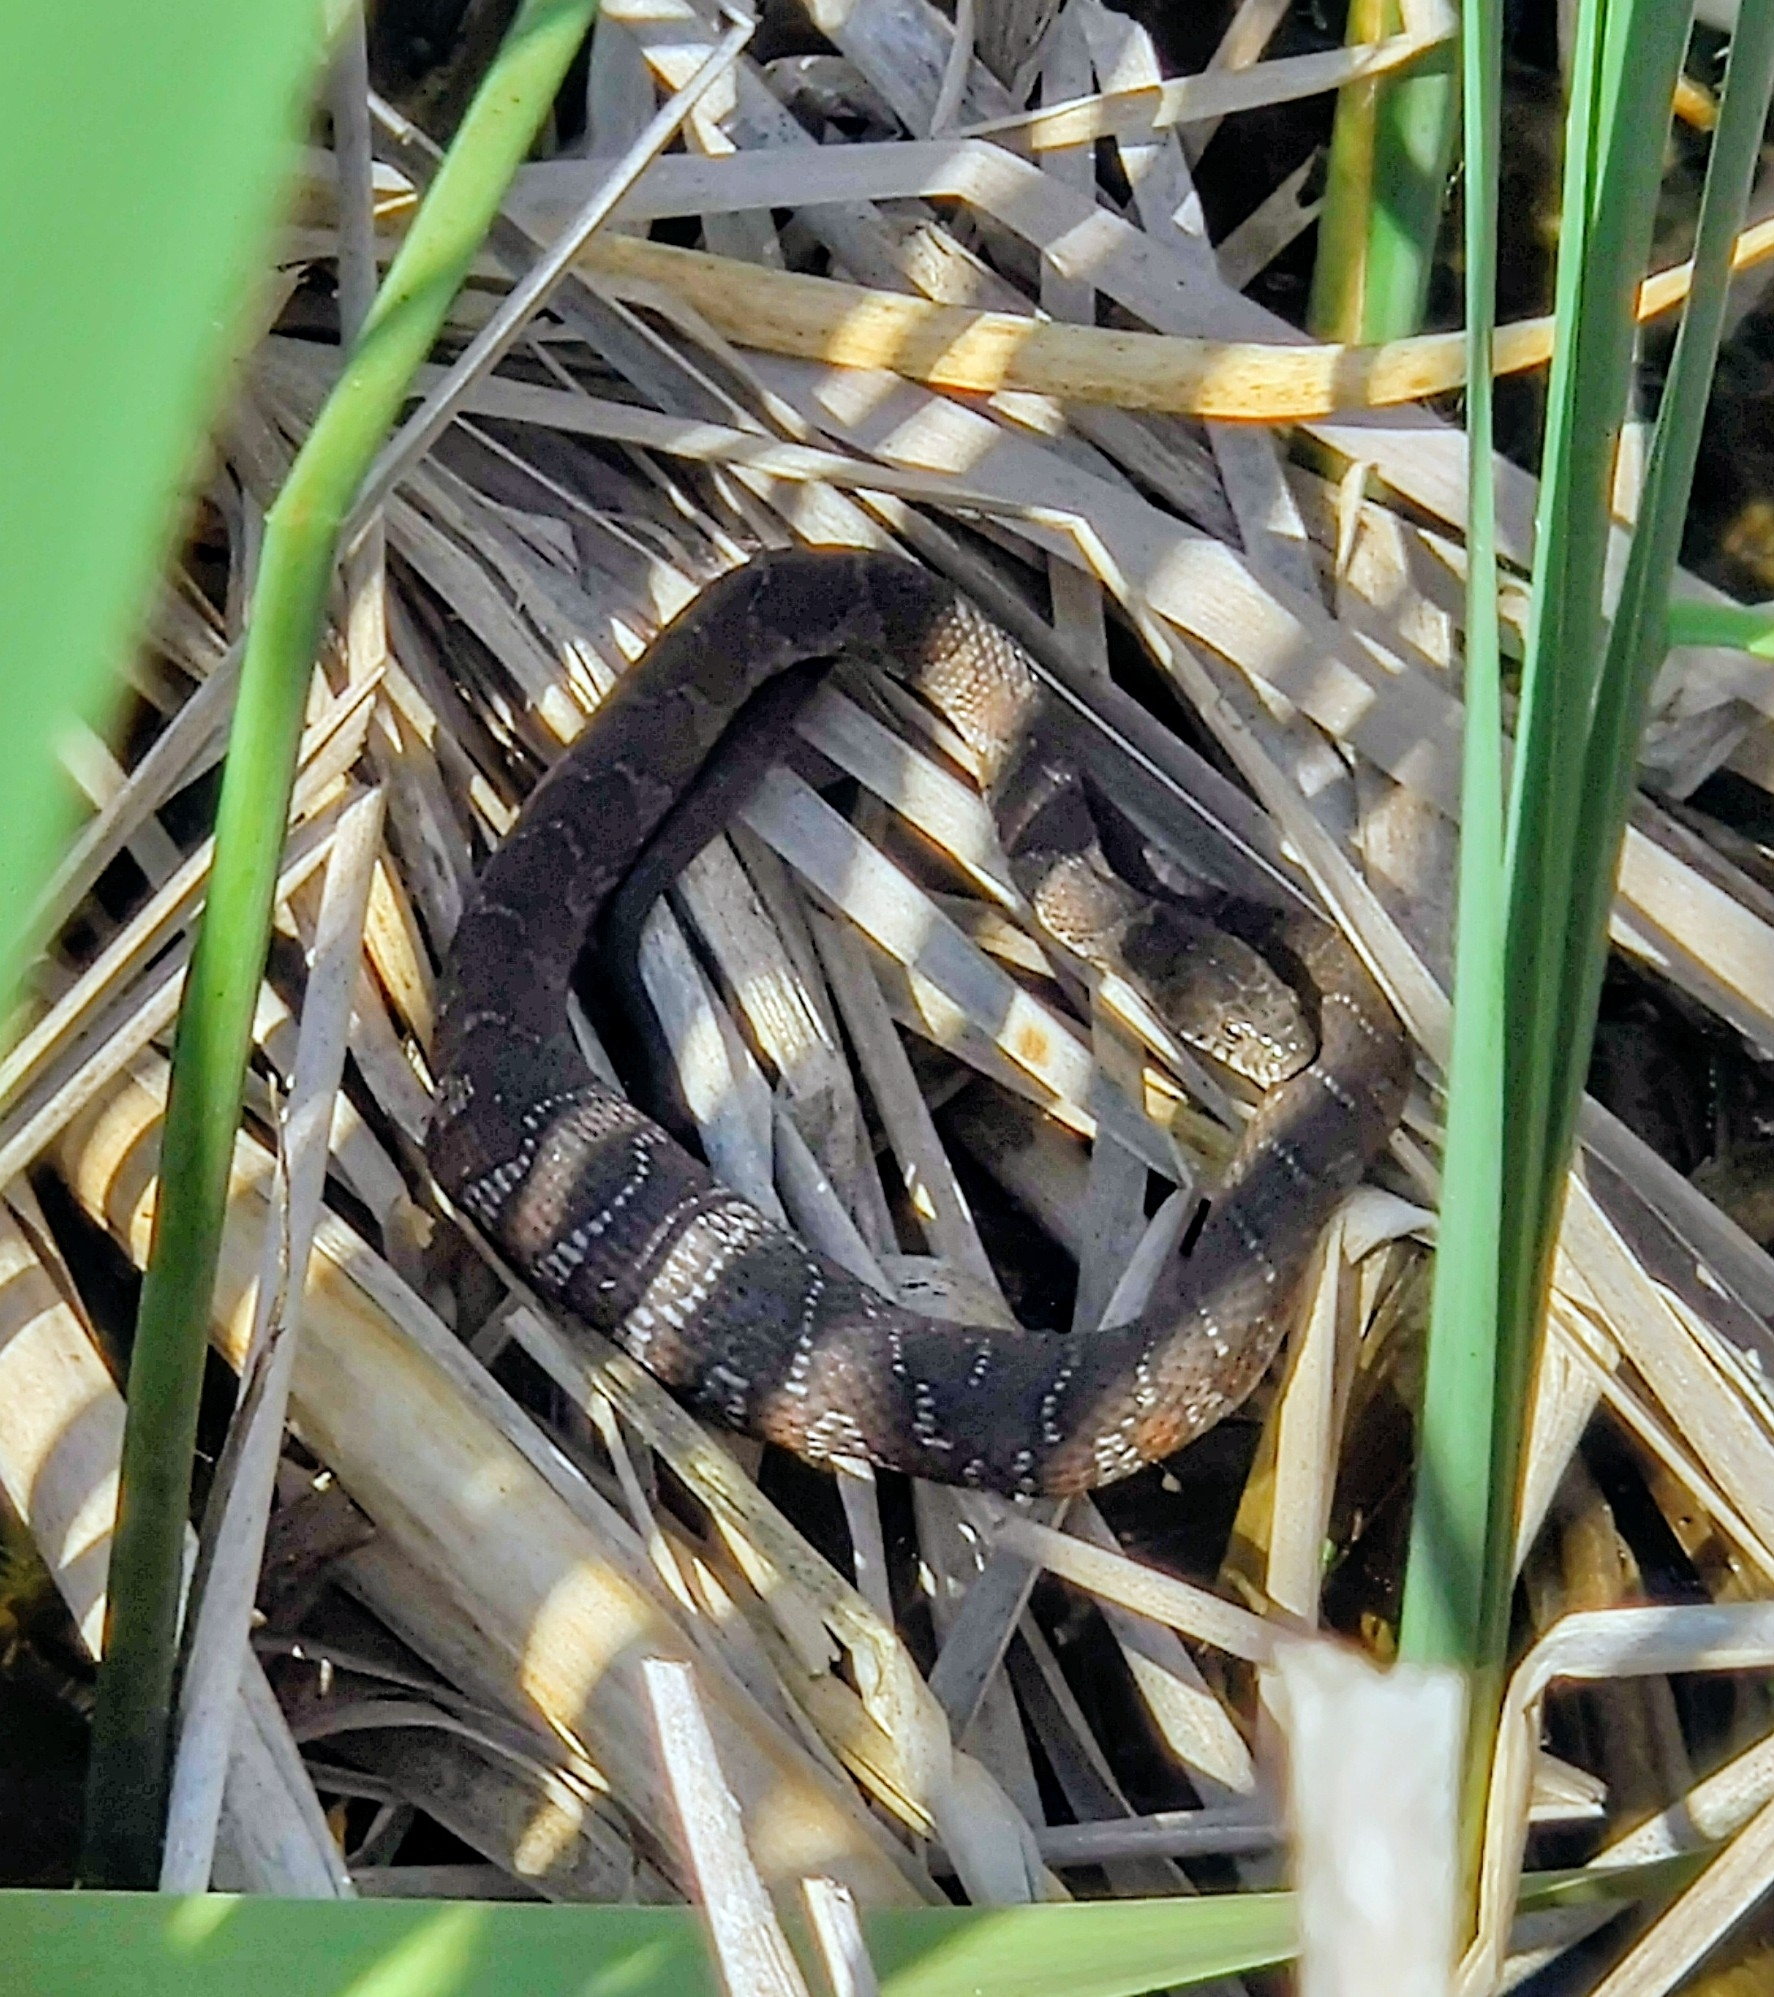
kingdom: Animalia
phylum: Chordata
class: Squamata
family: Colubridae
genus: Nerodia
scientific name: Nerodia sipedon
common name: Northern water snake
